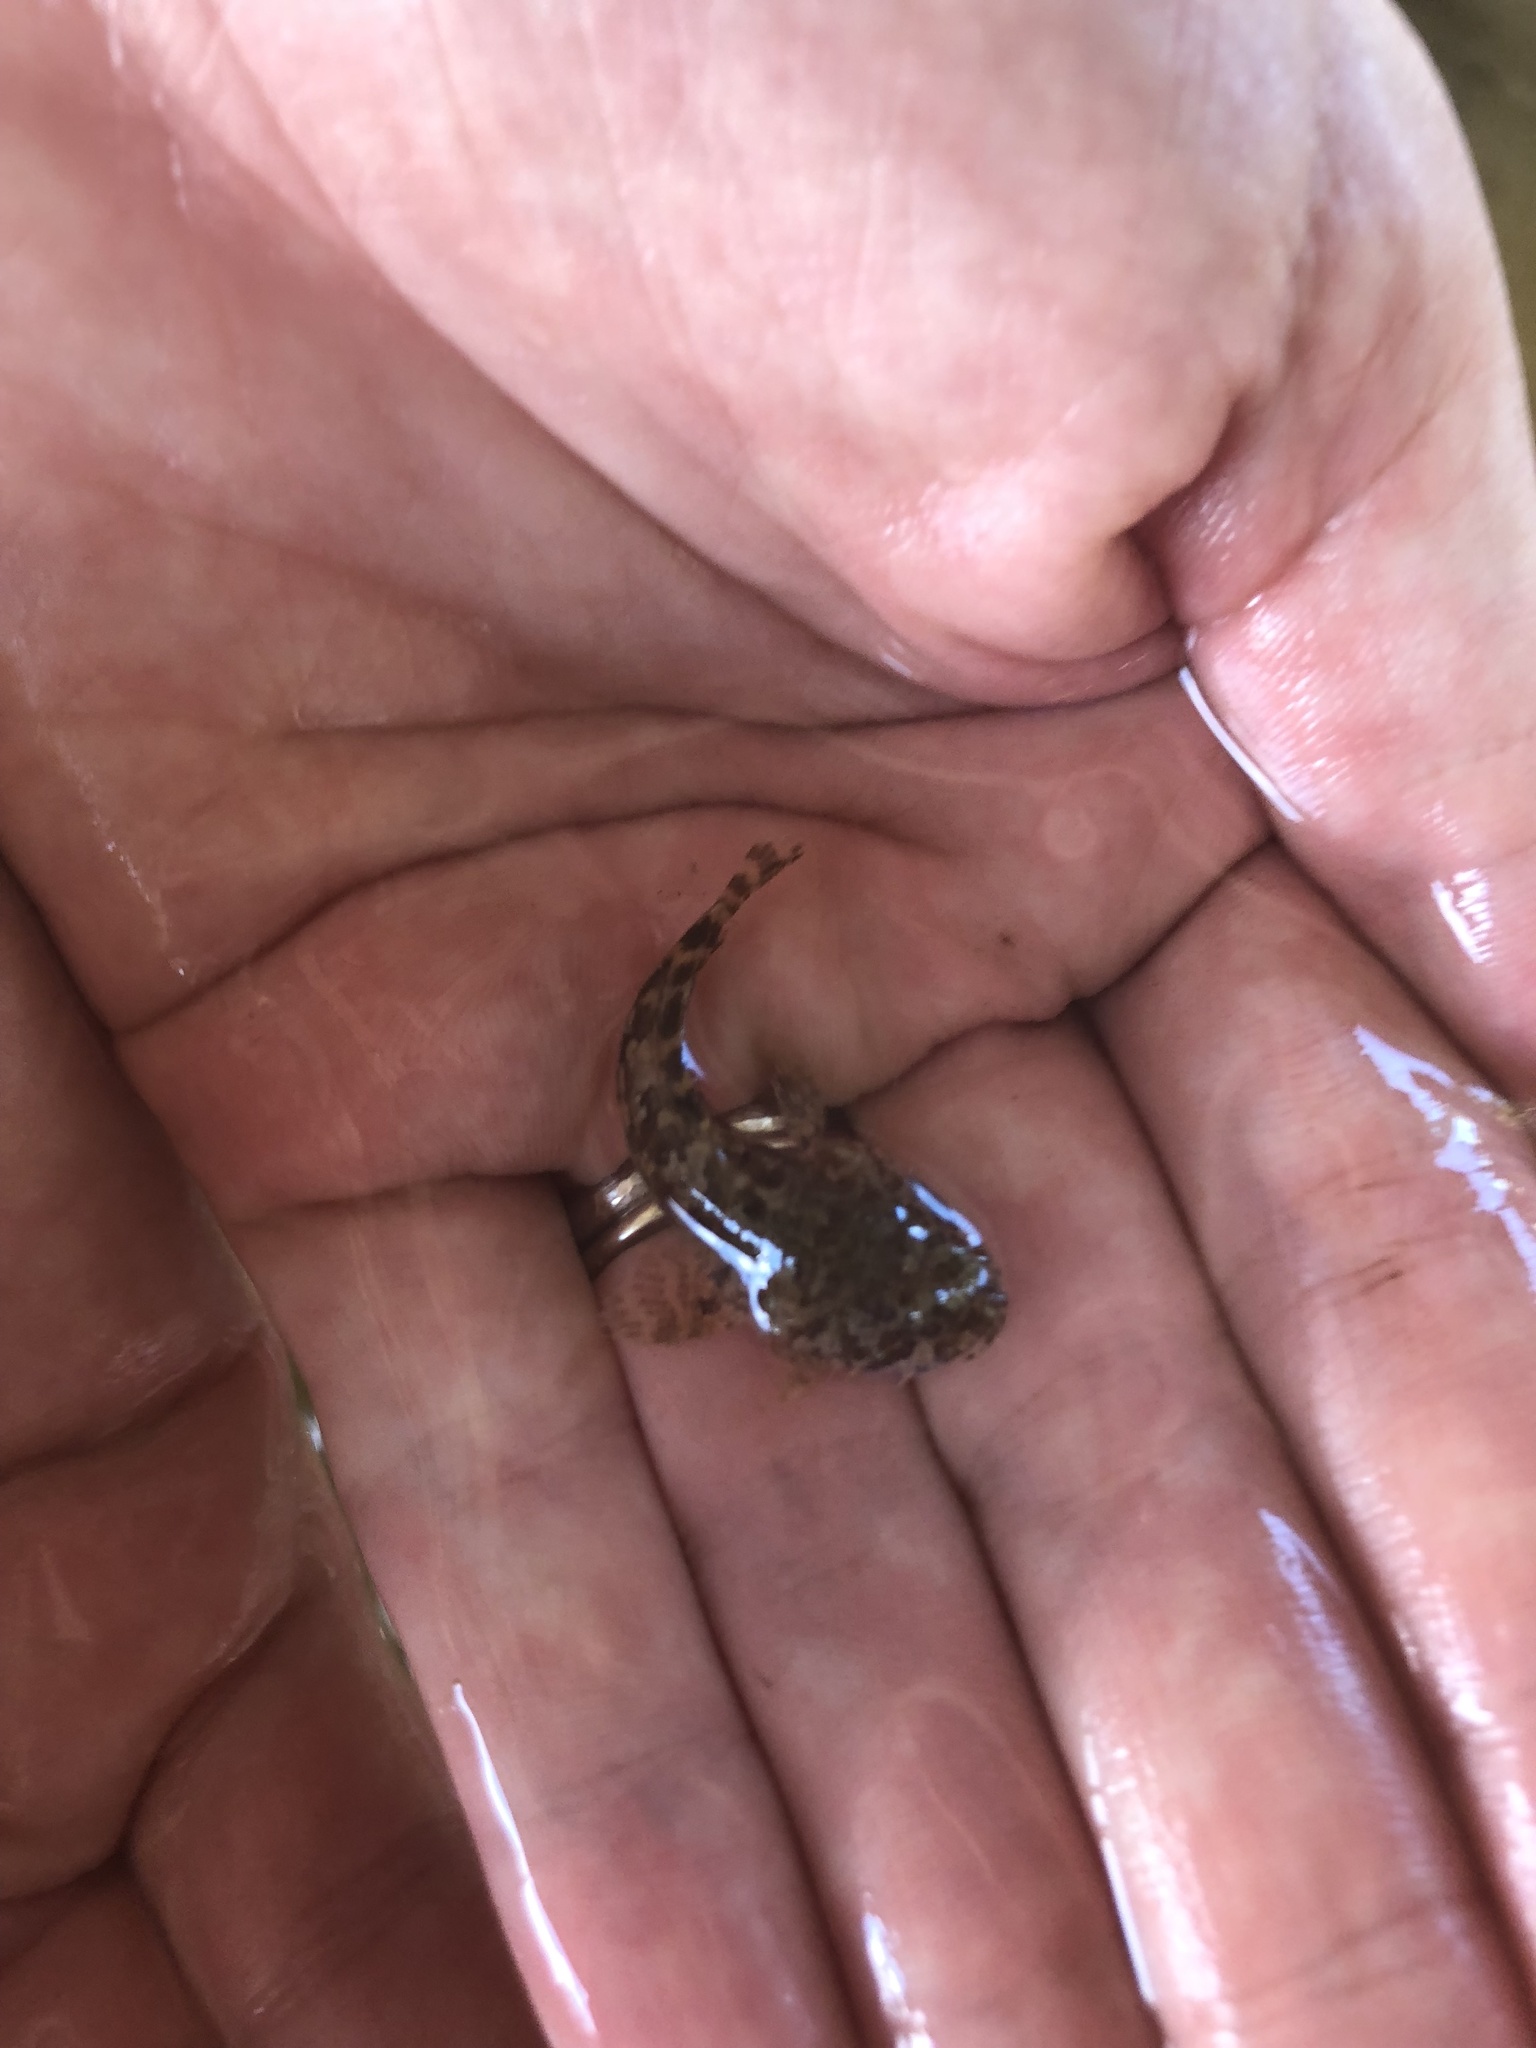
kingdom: Animalia
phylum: Chordata
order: Batrachoidiformes
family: Batrachoididae
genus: Opsanus
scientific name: Opsanus beta
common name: Gulf toadfish
